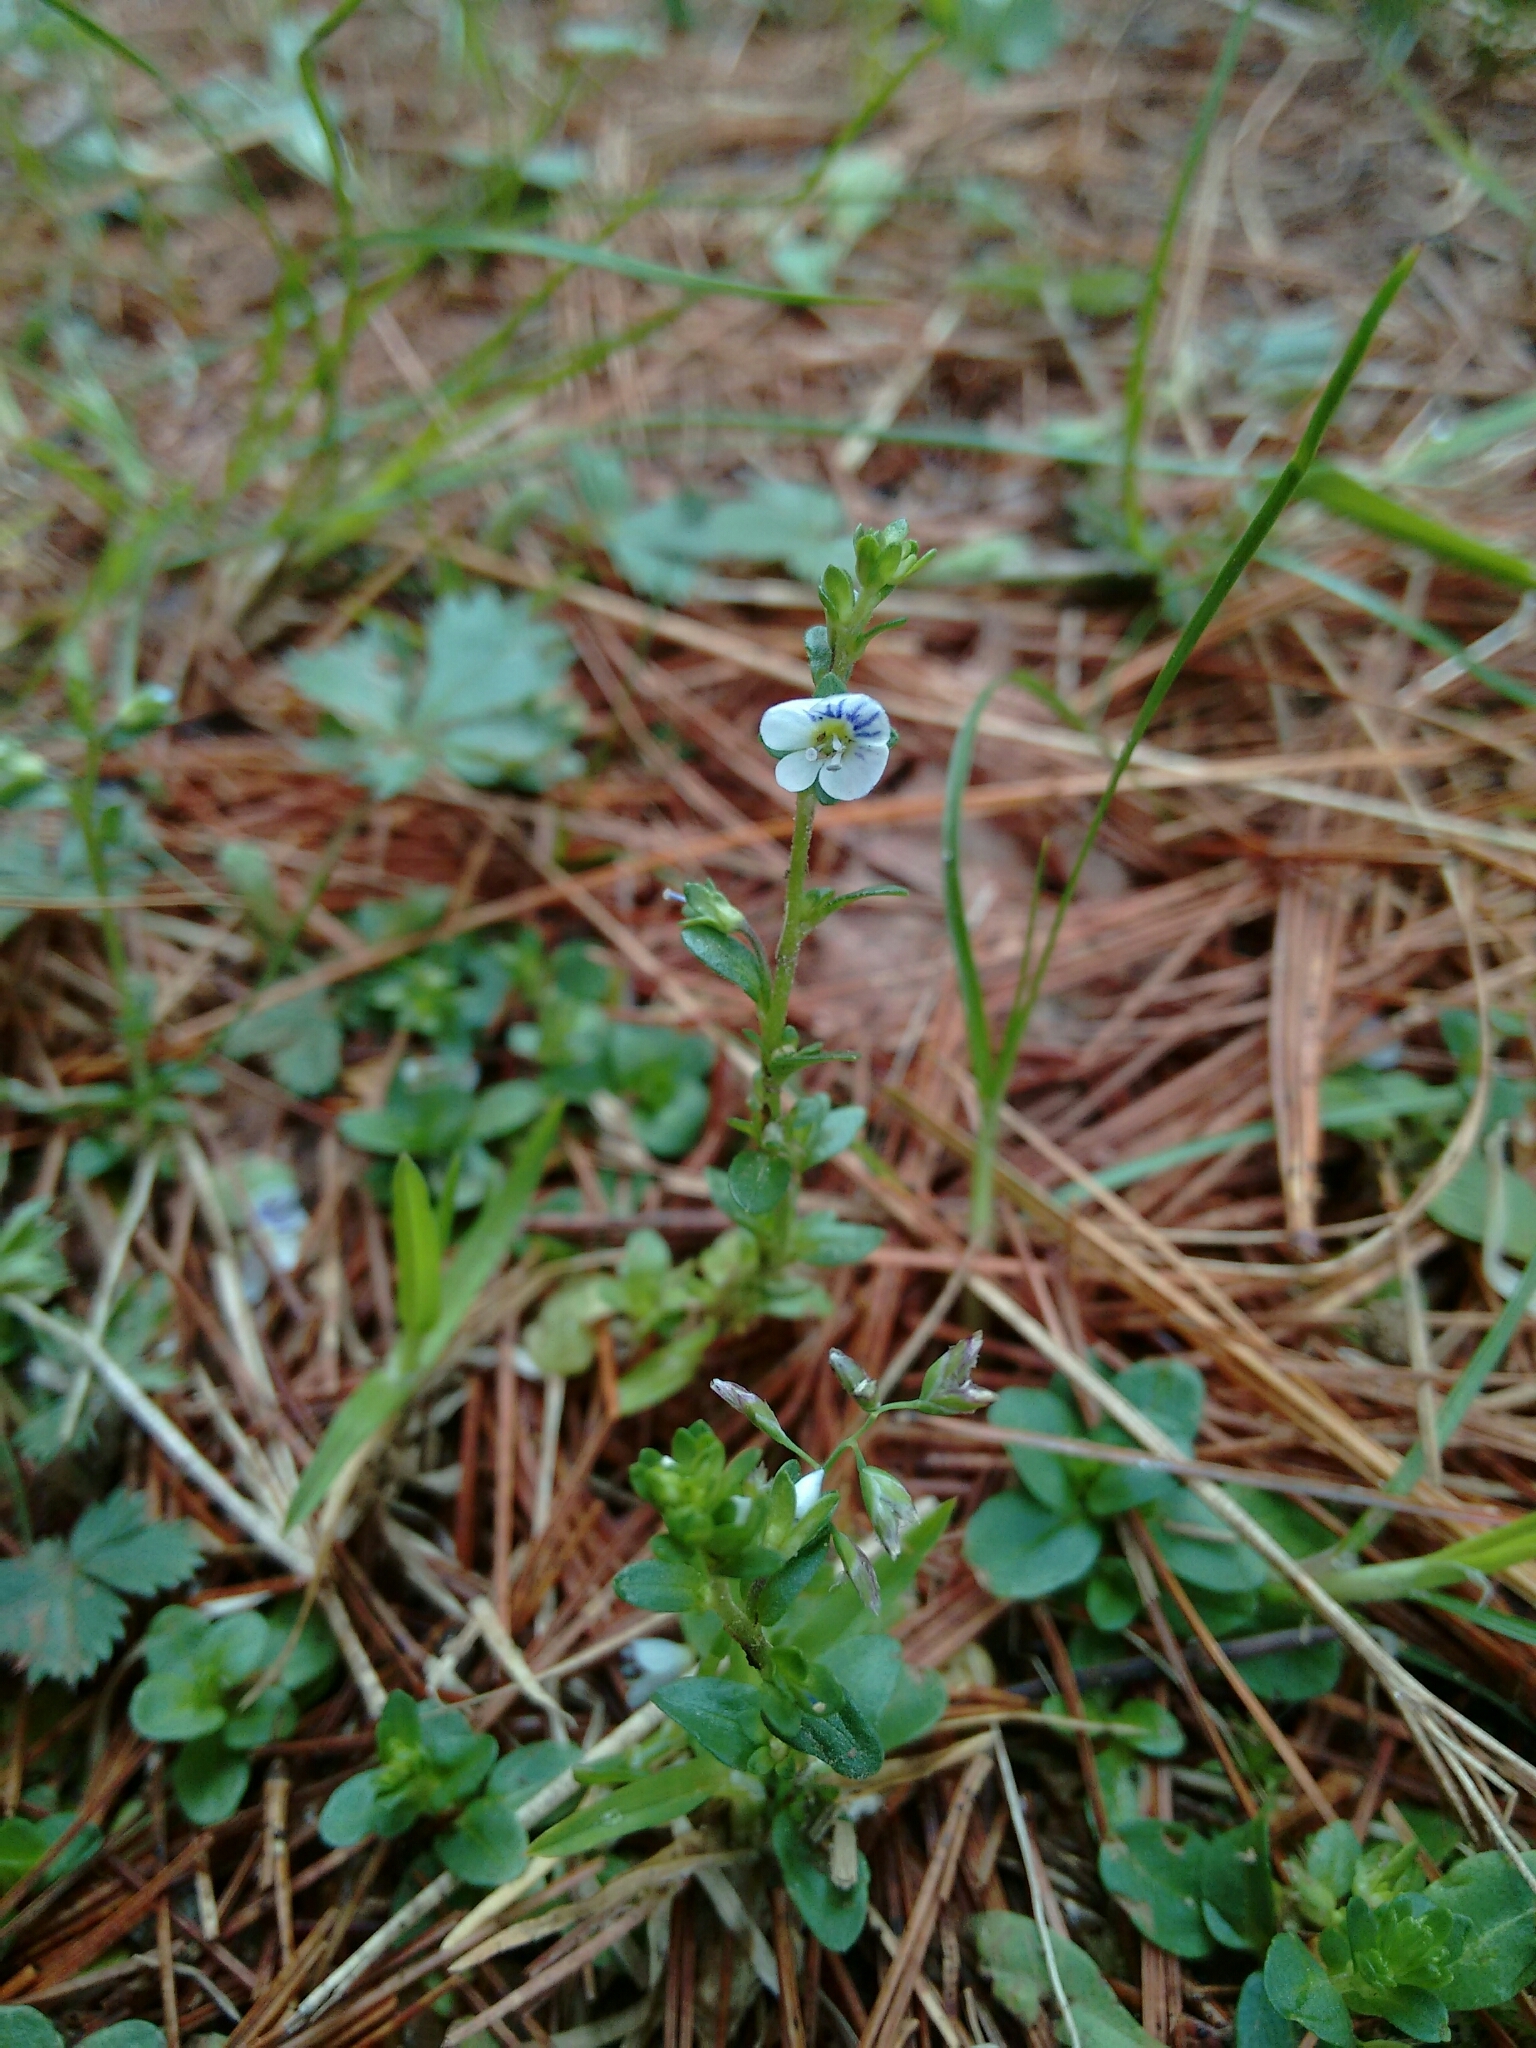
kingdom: Plantae
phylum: Tracheophyta
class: Magnoliopsida
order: Lamiales
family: Plantaginaceae
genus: Veronica
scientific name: Veronica serpyllifolia
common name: Thyme-leaved speedwell
